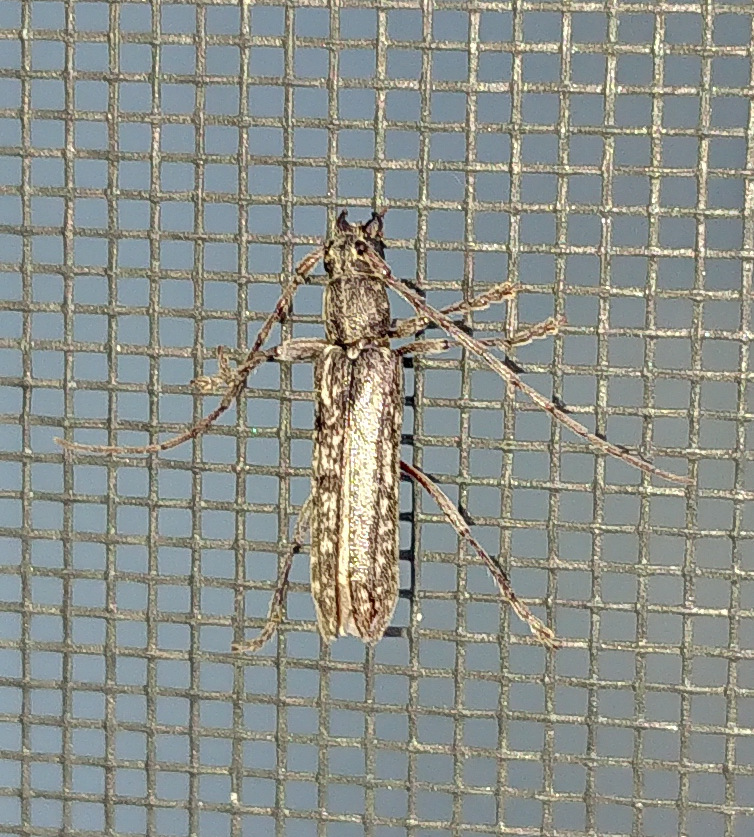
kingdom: Animalia
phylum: Arthropoda
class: Insecta
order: Coleoptera
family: Cerambycidae
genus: Anelaphus
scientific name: Anelaphus villosus
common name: Twig pruner
